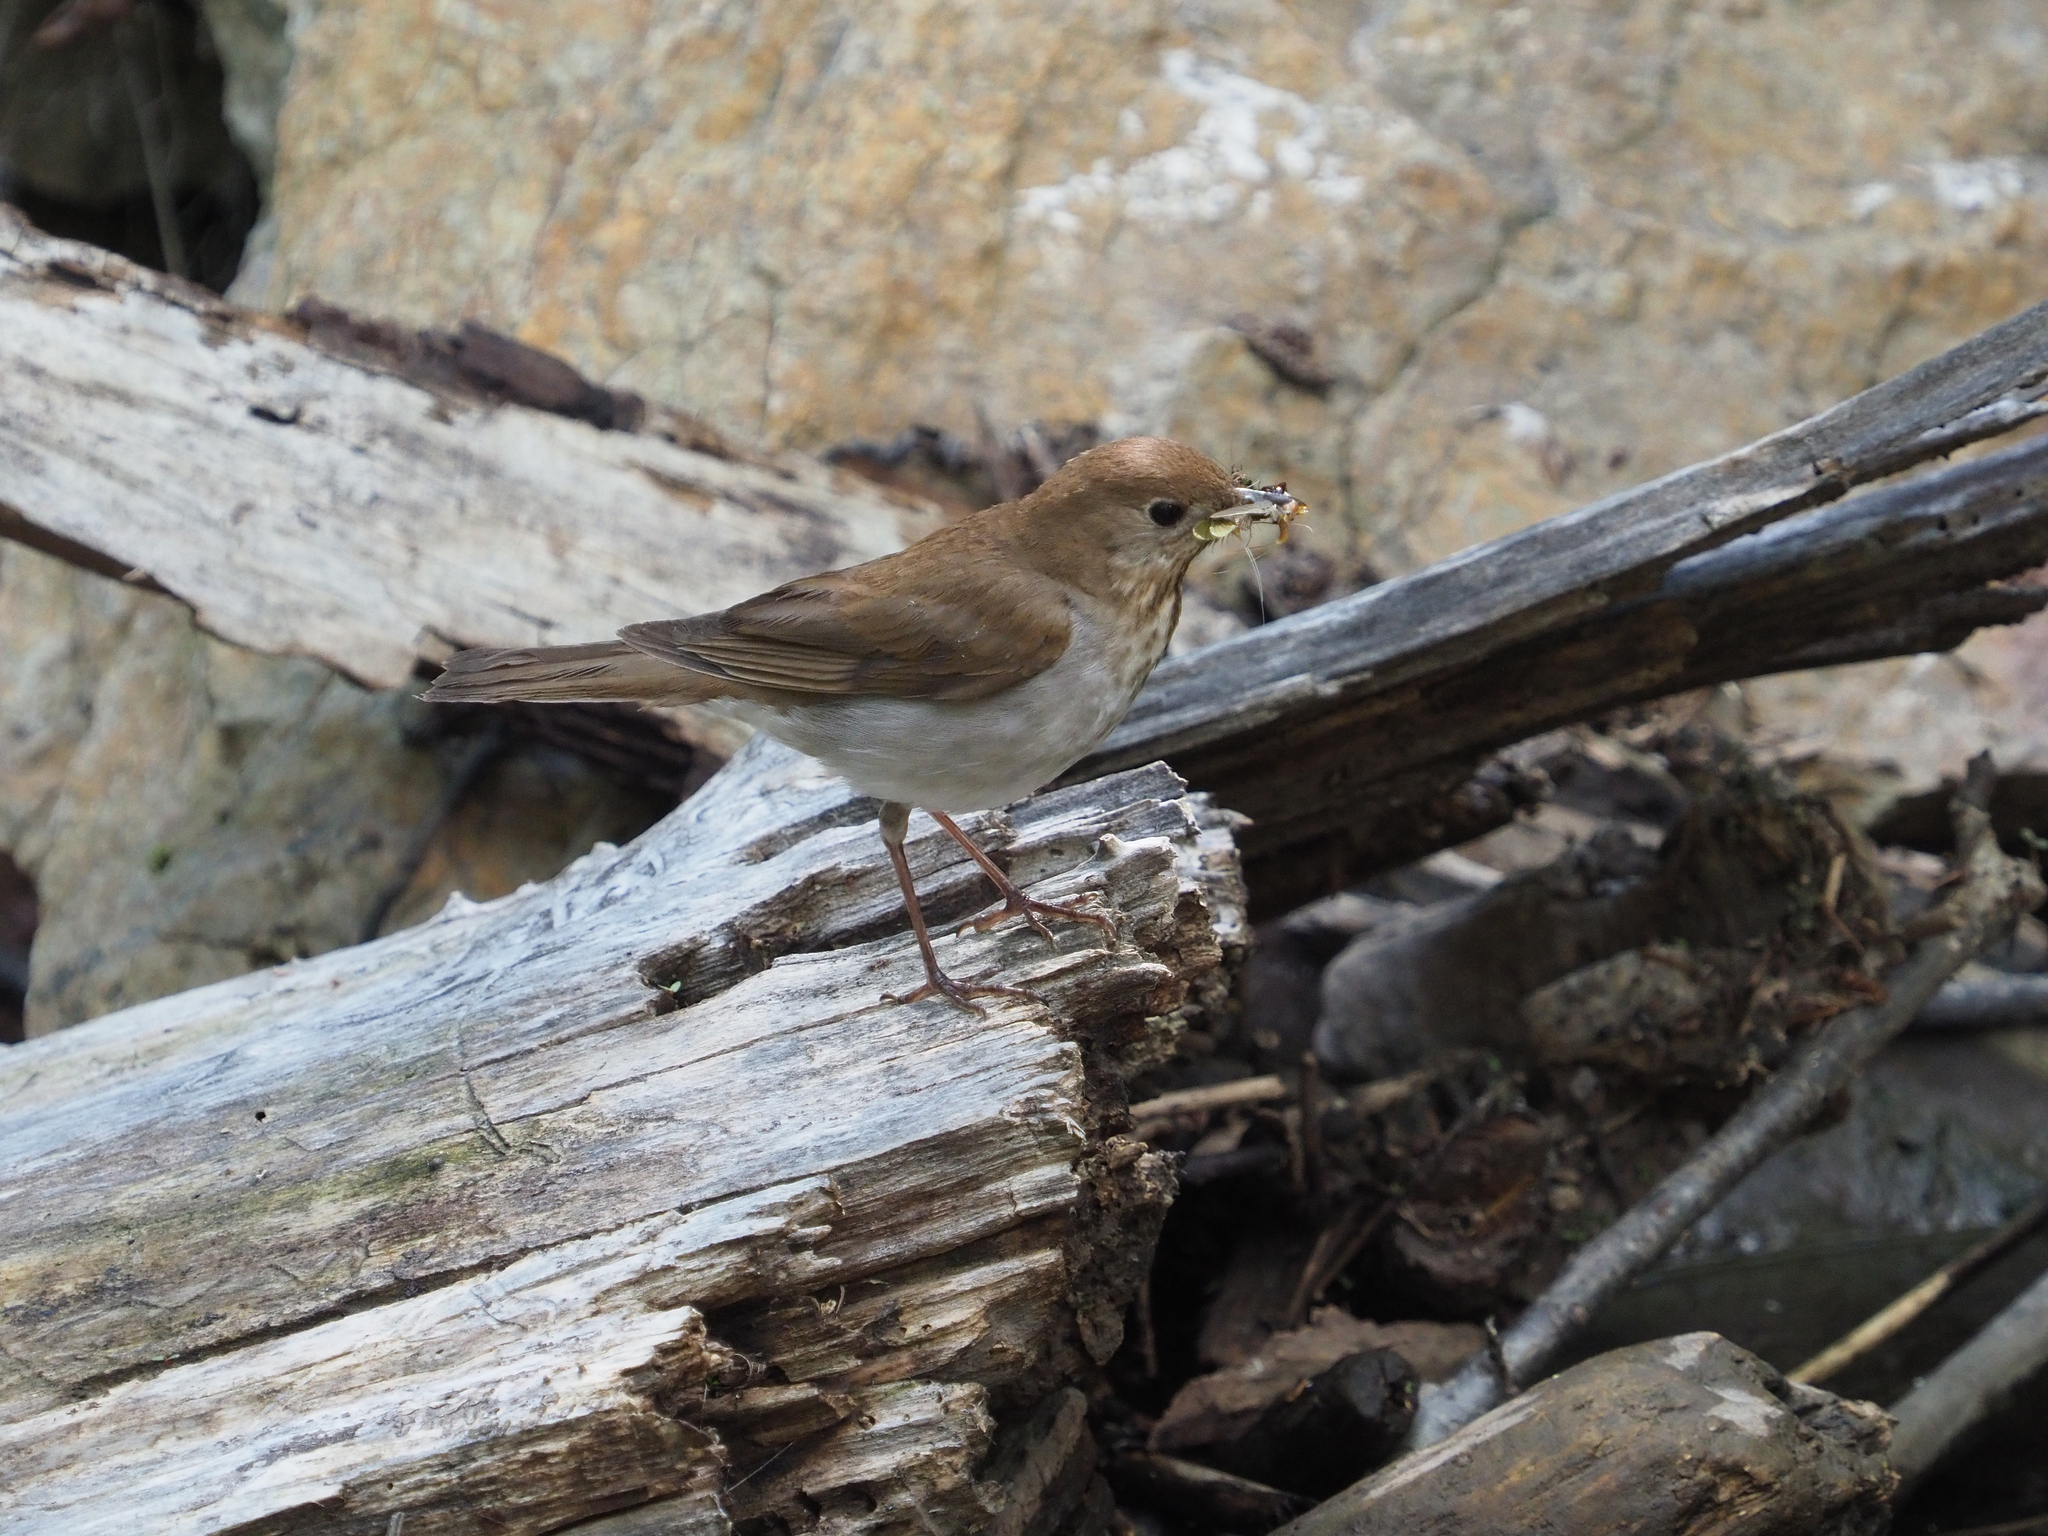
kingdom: Animalia
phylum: Chordata
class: Aves
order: Passeriformes
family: Turdidae
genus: Catharus
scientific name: Catharus fuscescens
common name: Veery
